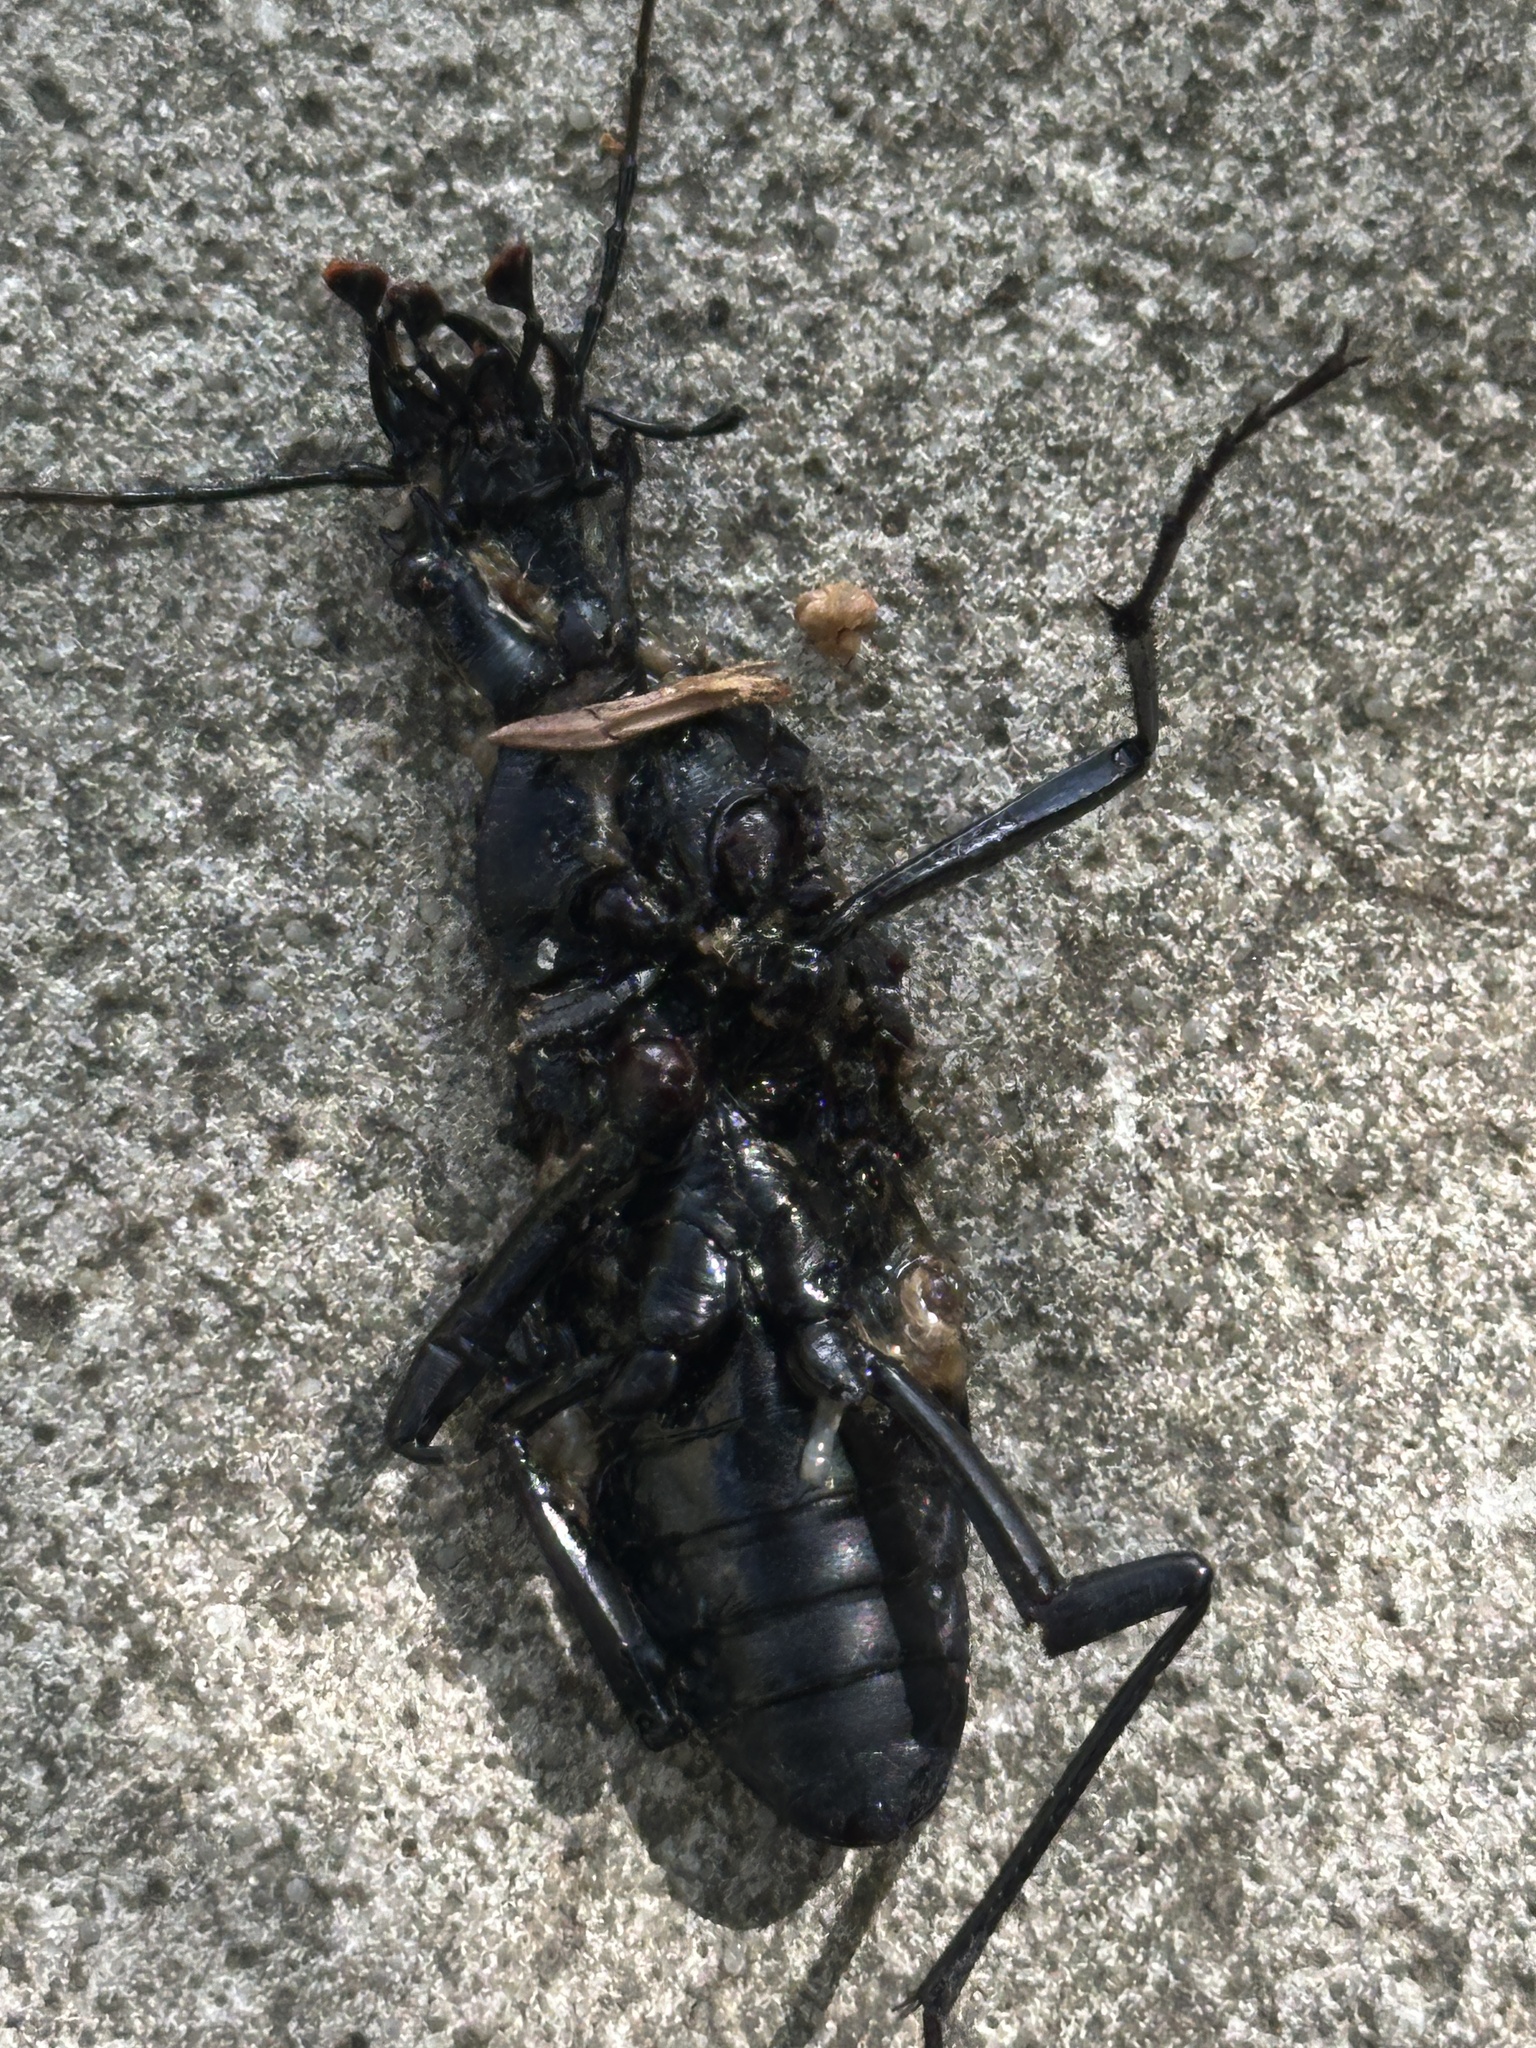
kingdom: Animalia
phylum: Arthropoda
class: Insecta
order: Coleoptera
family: Carabidae
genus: Carabus
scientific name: Carabus blaptoides
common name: Snail-eating beetle
